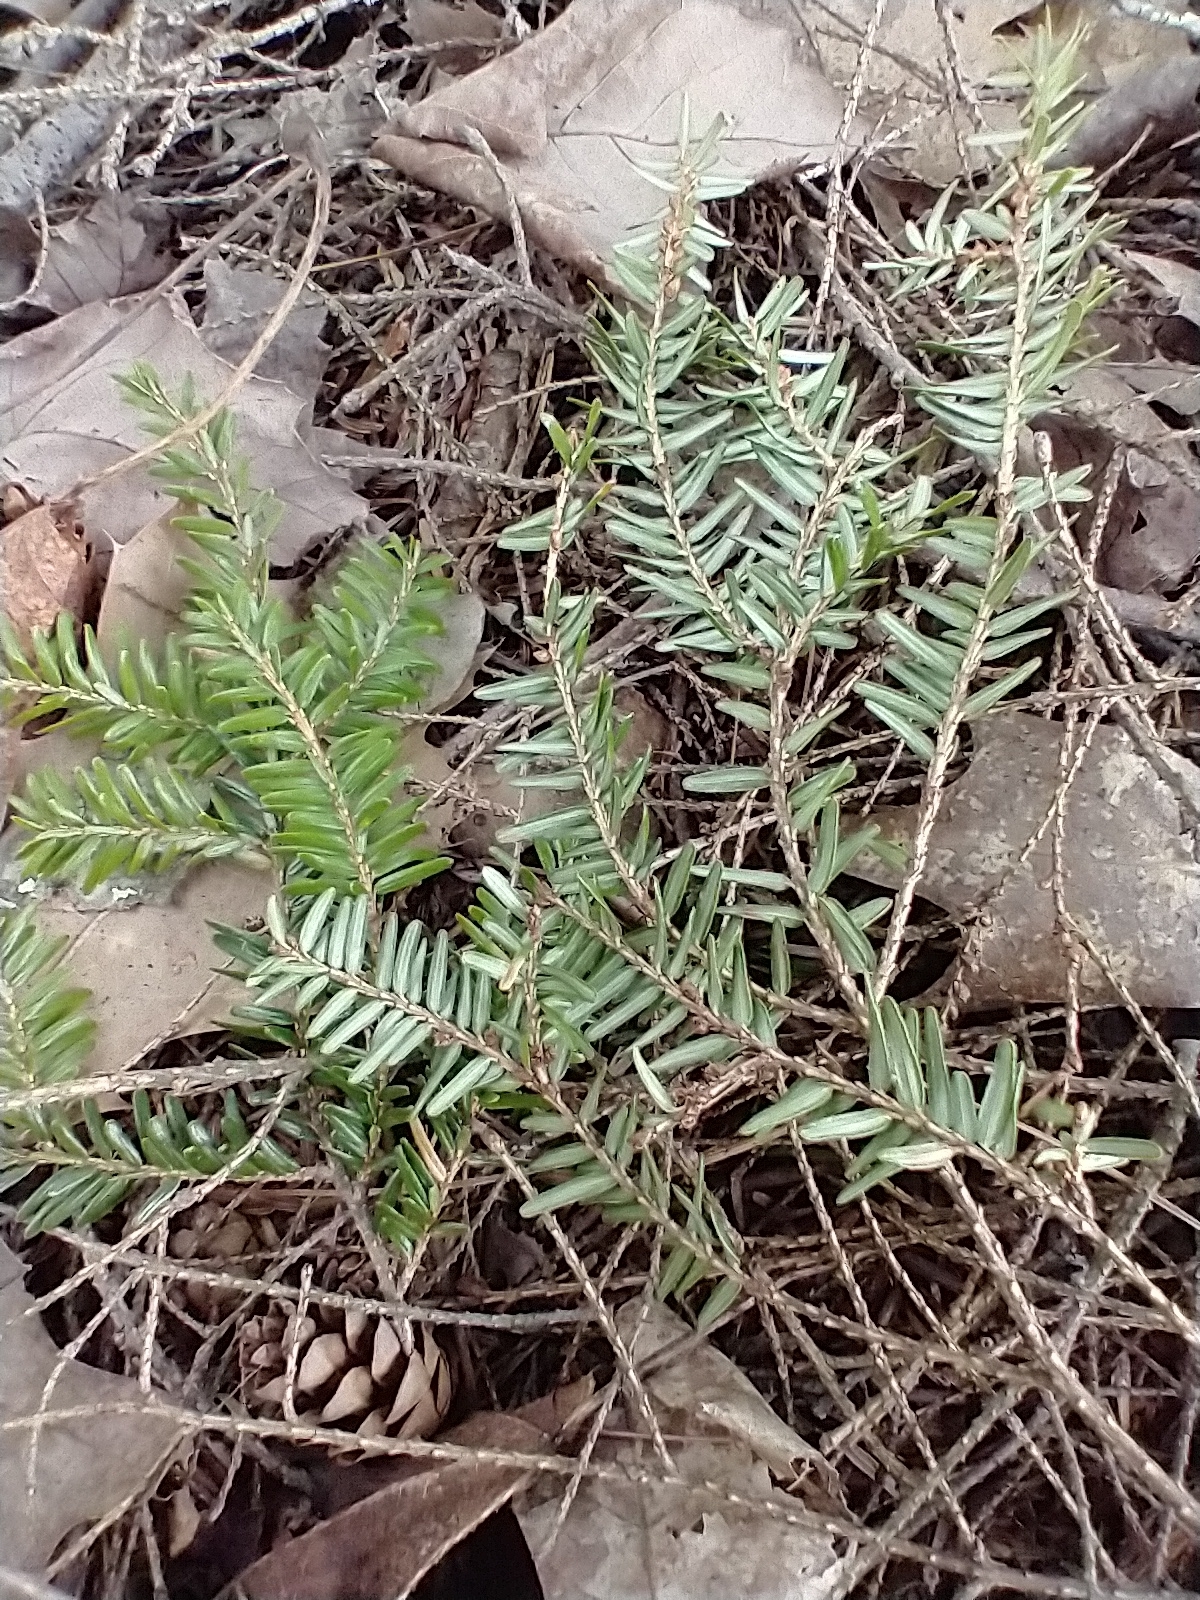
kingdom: Plantae
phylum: Tracheophyta
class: Pinopsida
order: Pinales
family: Pinaceae
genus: Tsuga
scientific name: Tsuga canadensis
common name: Eastern hemlock
